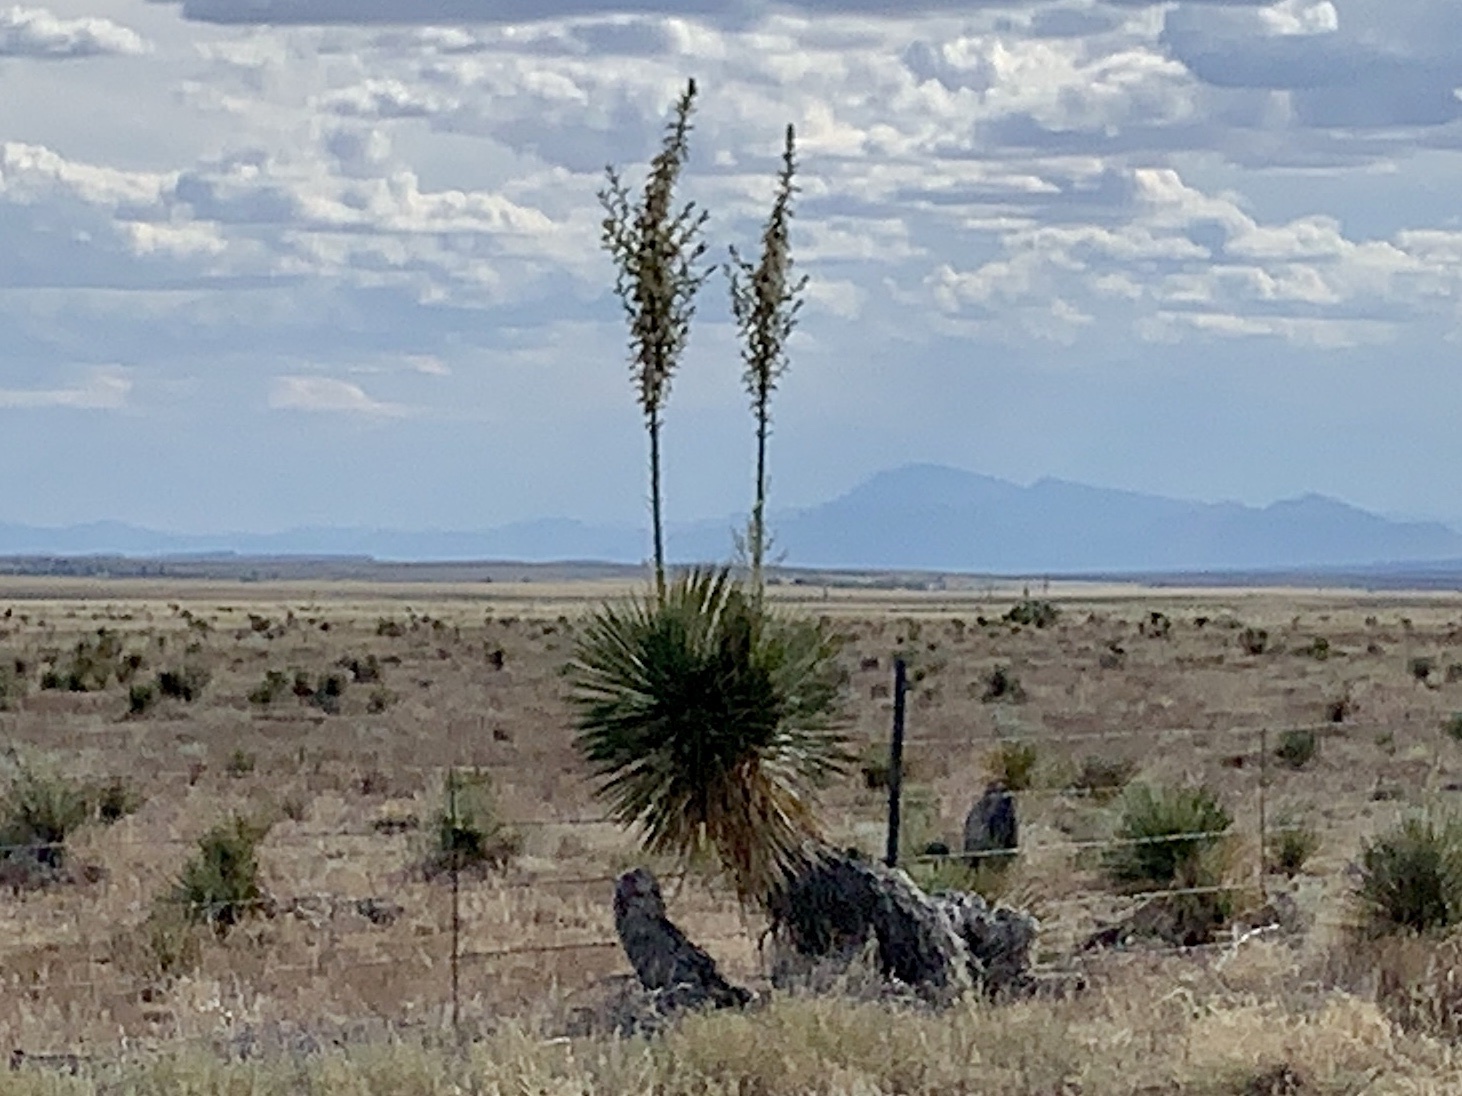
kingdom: Plantae
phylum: Tracheophyta
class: Liliopsida
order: Asparagales
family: Asparagaceae
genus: Yucca
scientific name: Yucca elata
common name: Palmella
